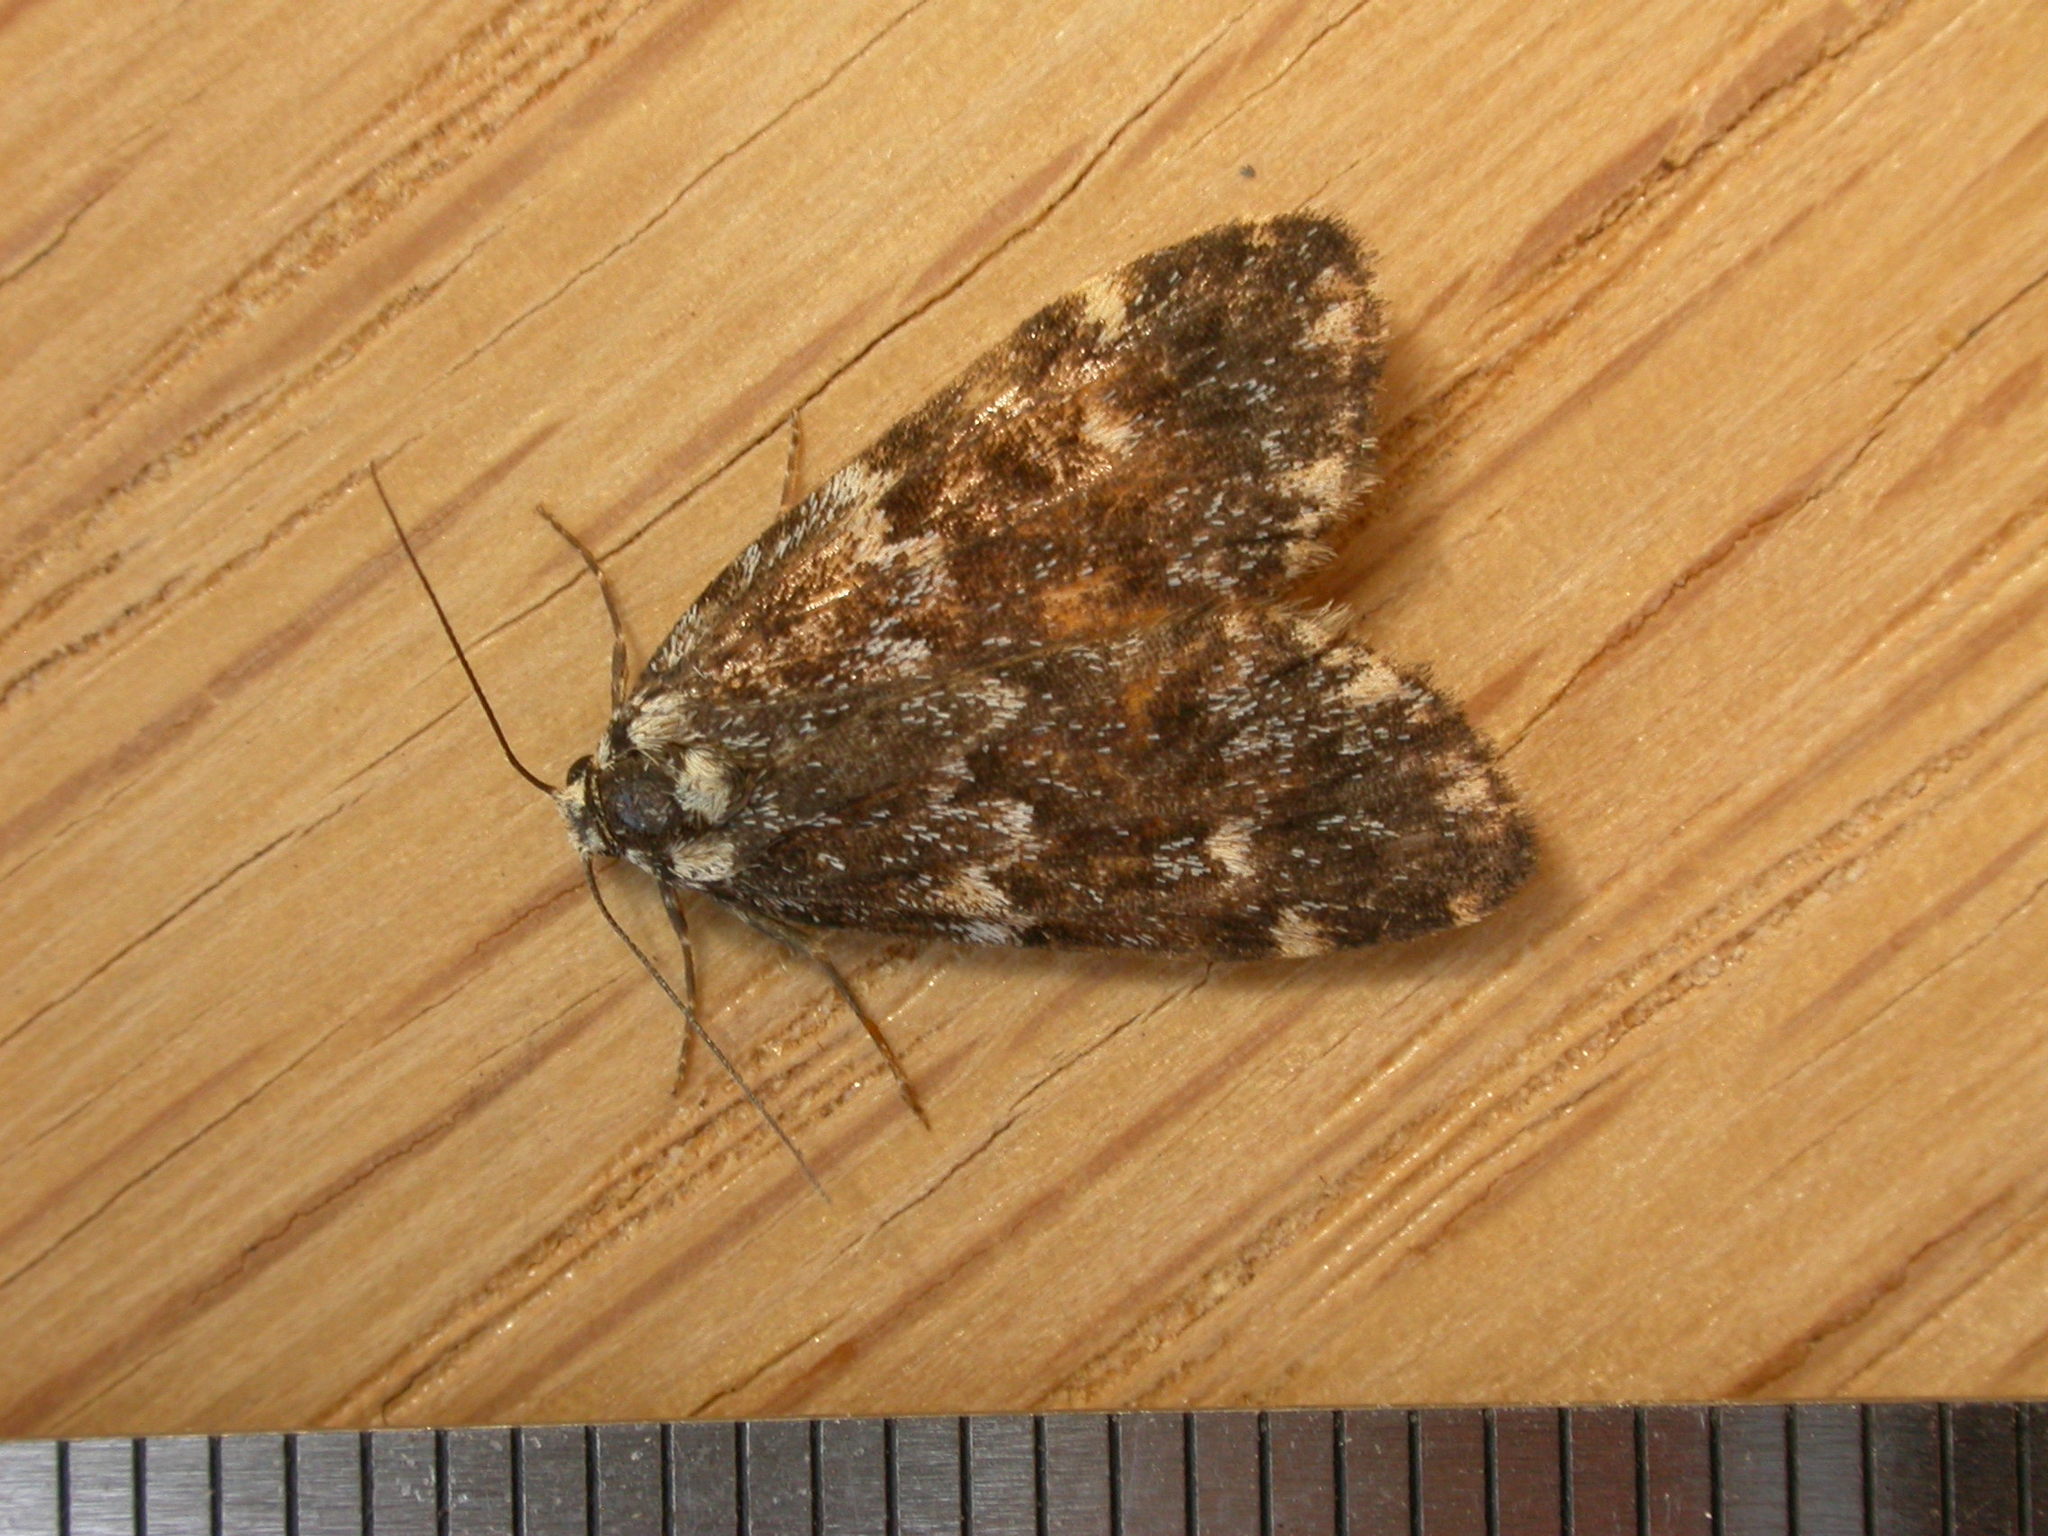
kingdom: Animalia
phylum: Arthropoda
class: Insecta
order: Lepidoptera
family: Erebidae
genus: Halone
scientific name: Halone coryphoea
